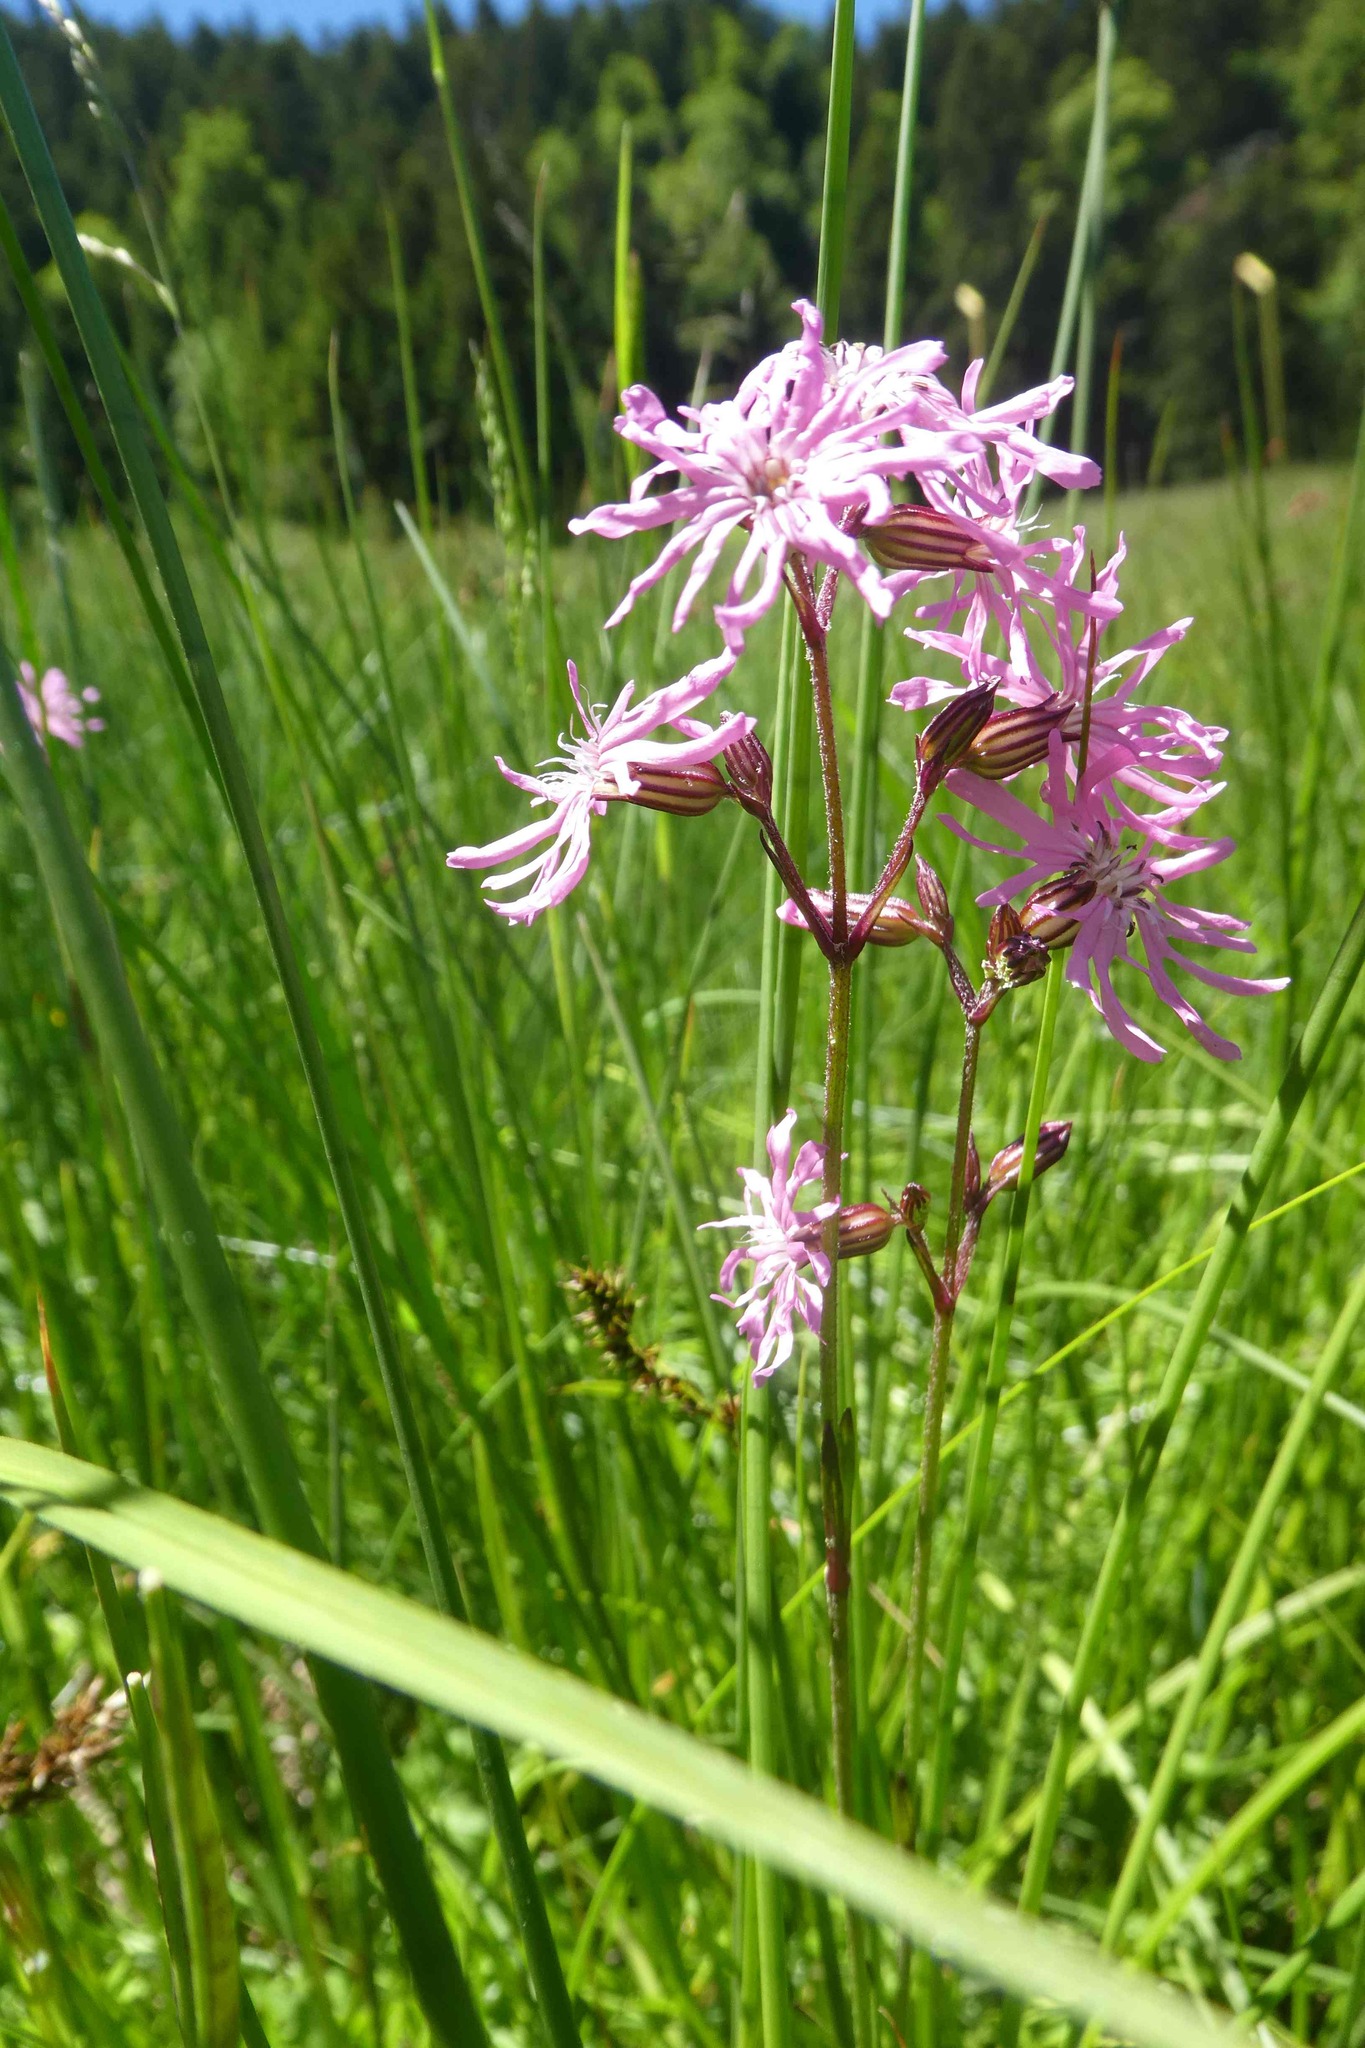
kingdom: Plantae
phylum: Tracheophyta
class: Magnoliopsida
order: Caryophyllales
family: Caryophyllaceae
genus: Silene
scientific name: Silene flos-cuculi
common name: Ragged-robin
